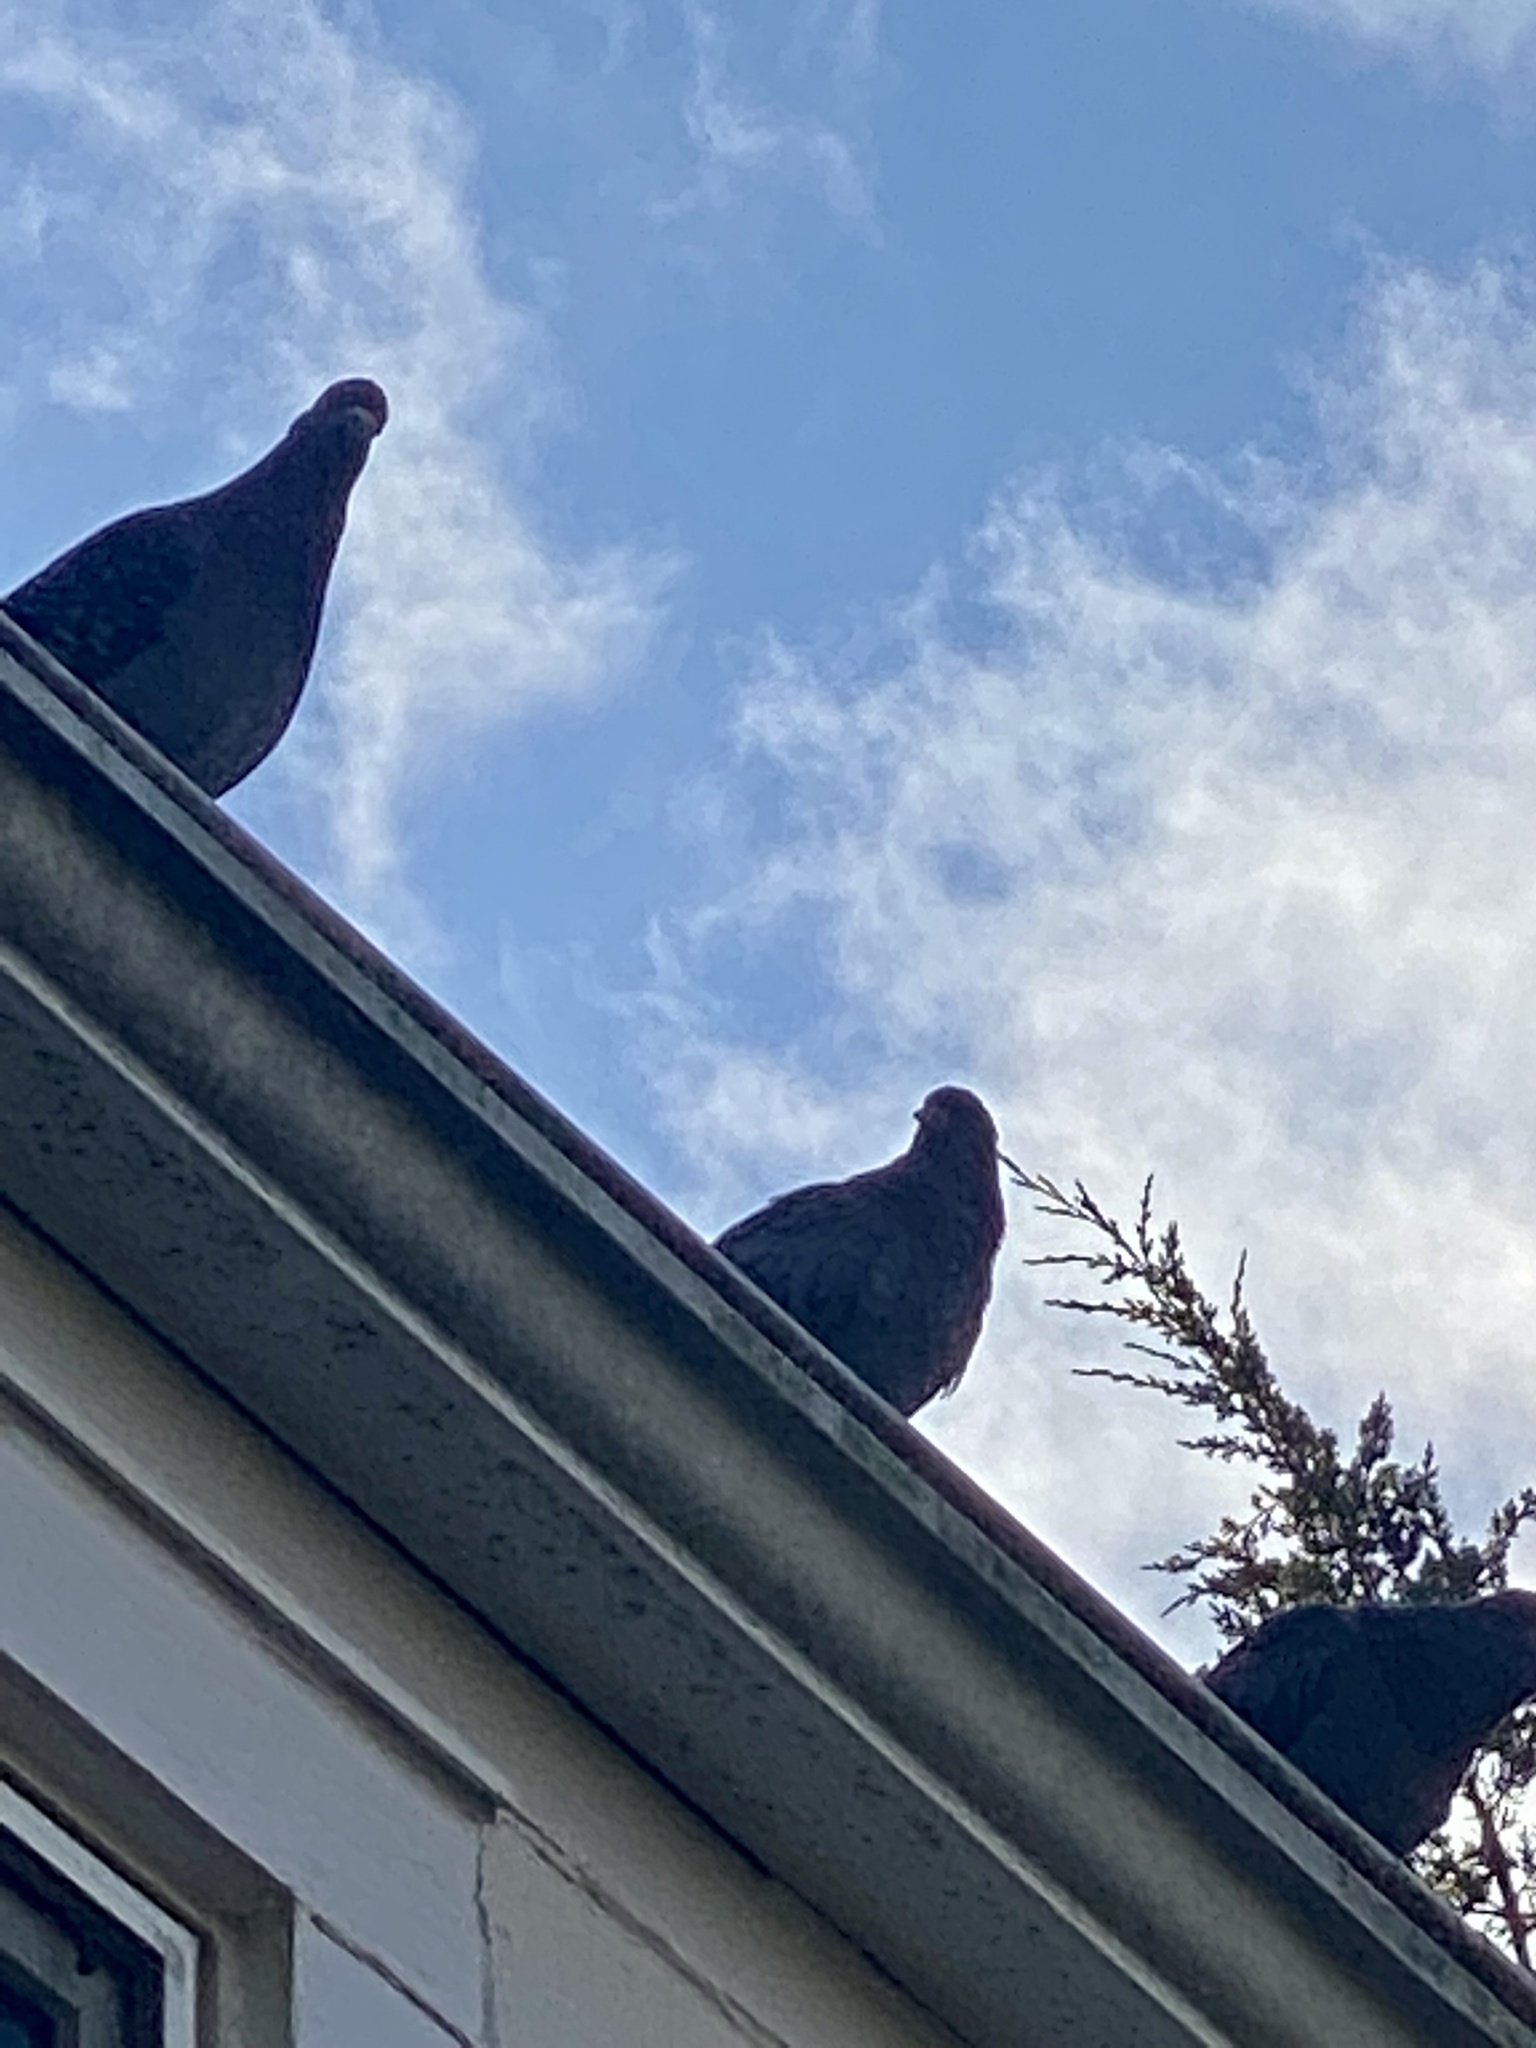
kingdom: Animalia
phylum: Chordata
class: Aves
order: Columbiformes
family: Columbidae
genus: Columba
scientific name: Columba livia
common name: Rock pigeon
